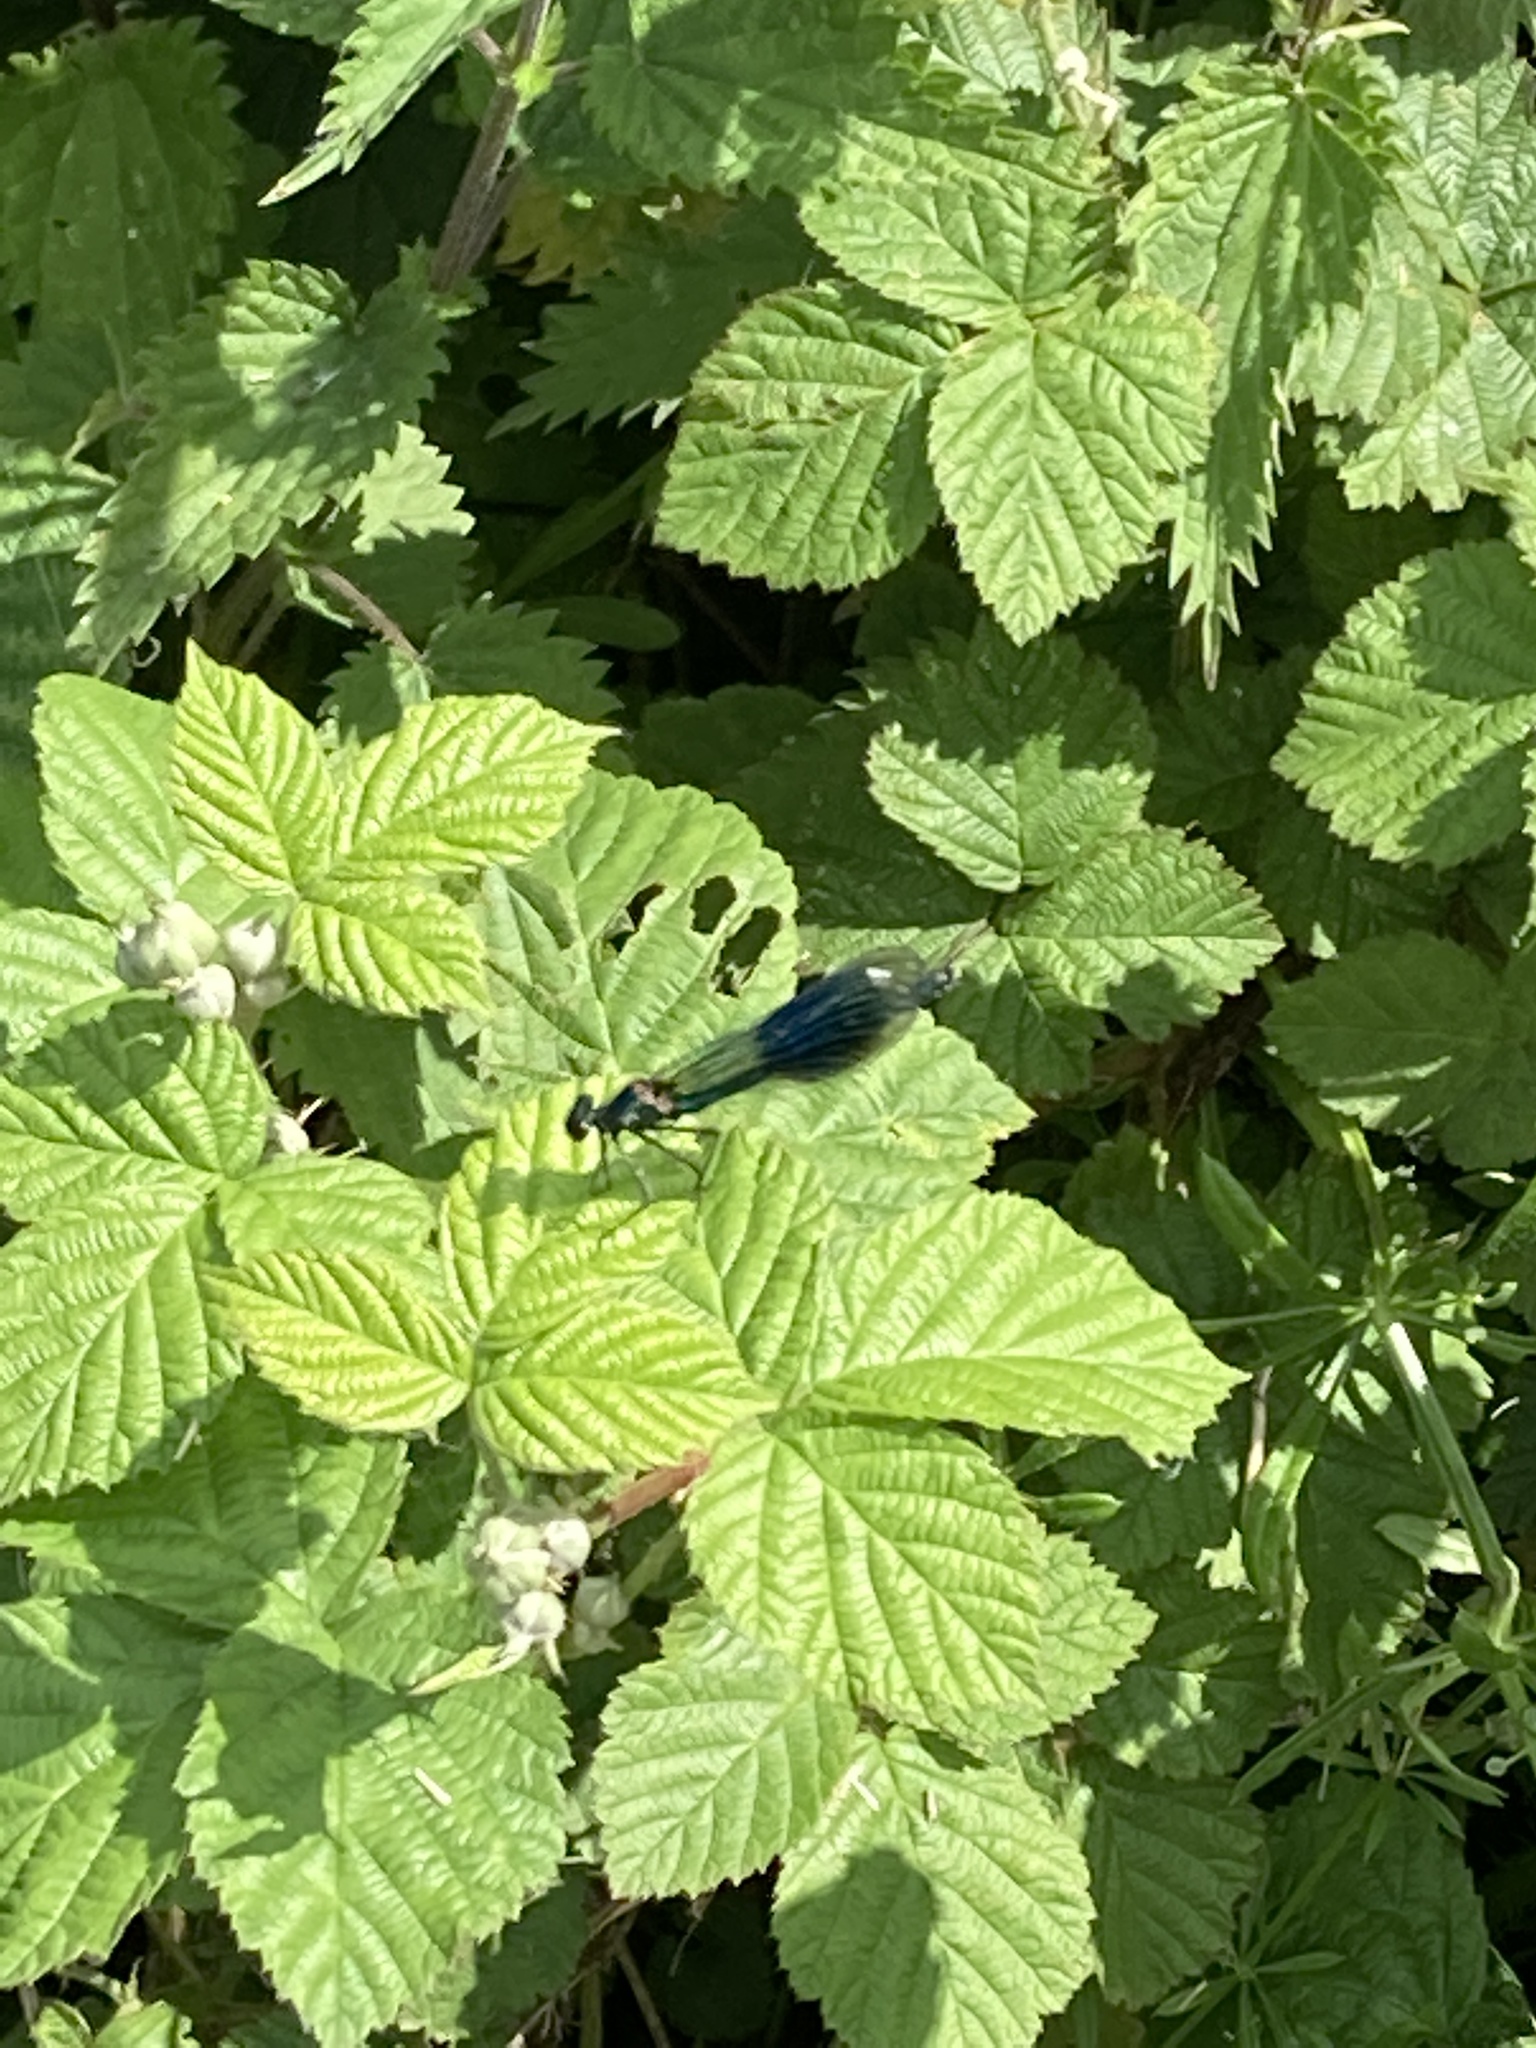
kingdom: Animalia
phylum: Arthropoda
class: Insecta
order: Odonata
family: Calopterygidae
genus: Calopteryx
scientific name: Calopteryx splendens
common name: Banded demoiselle
